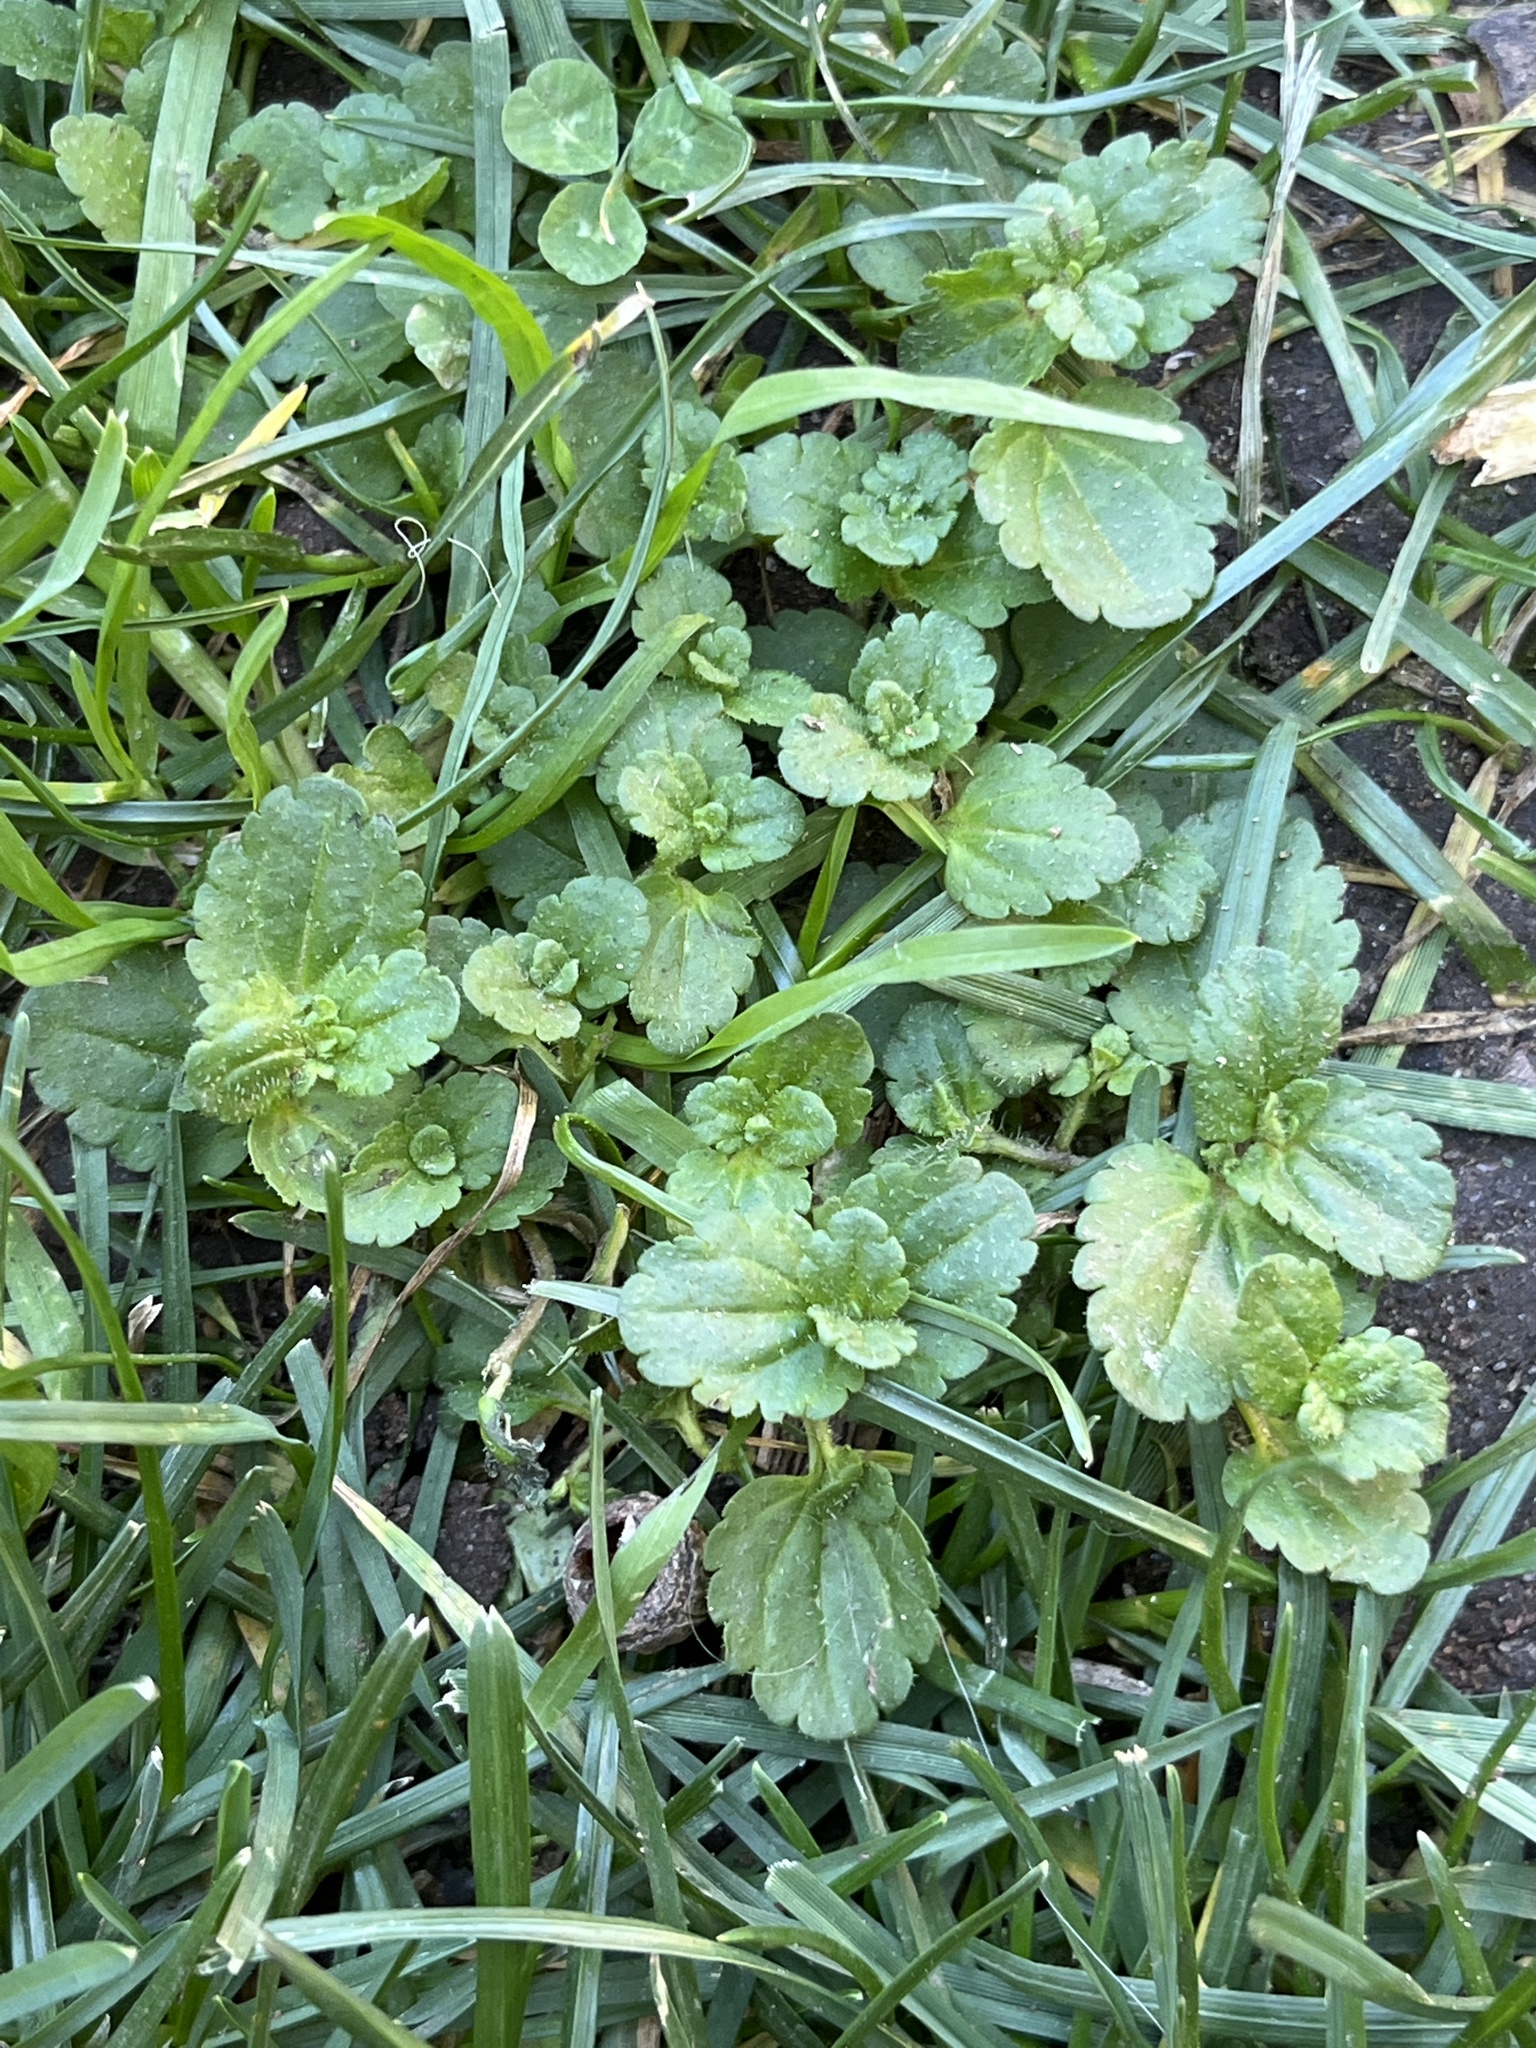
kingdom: Plantae
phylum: Tracheophyta
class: Magnoliopsida
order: Lamiales
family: Plantaginaceae
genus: Veronica
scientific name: Veronica persica
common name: Common field-speedwell
